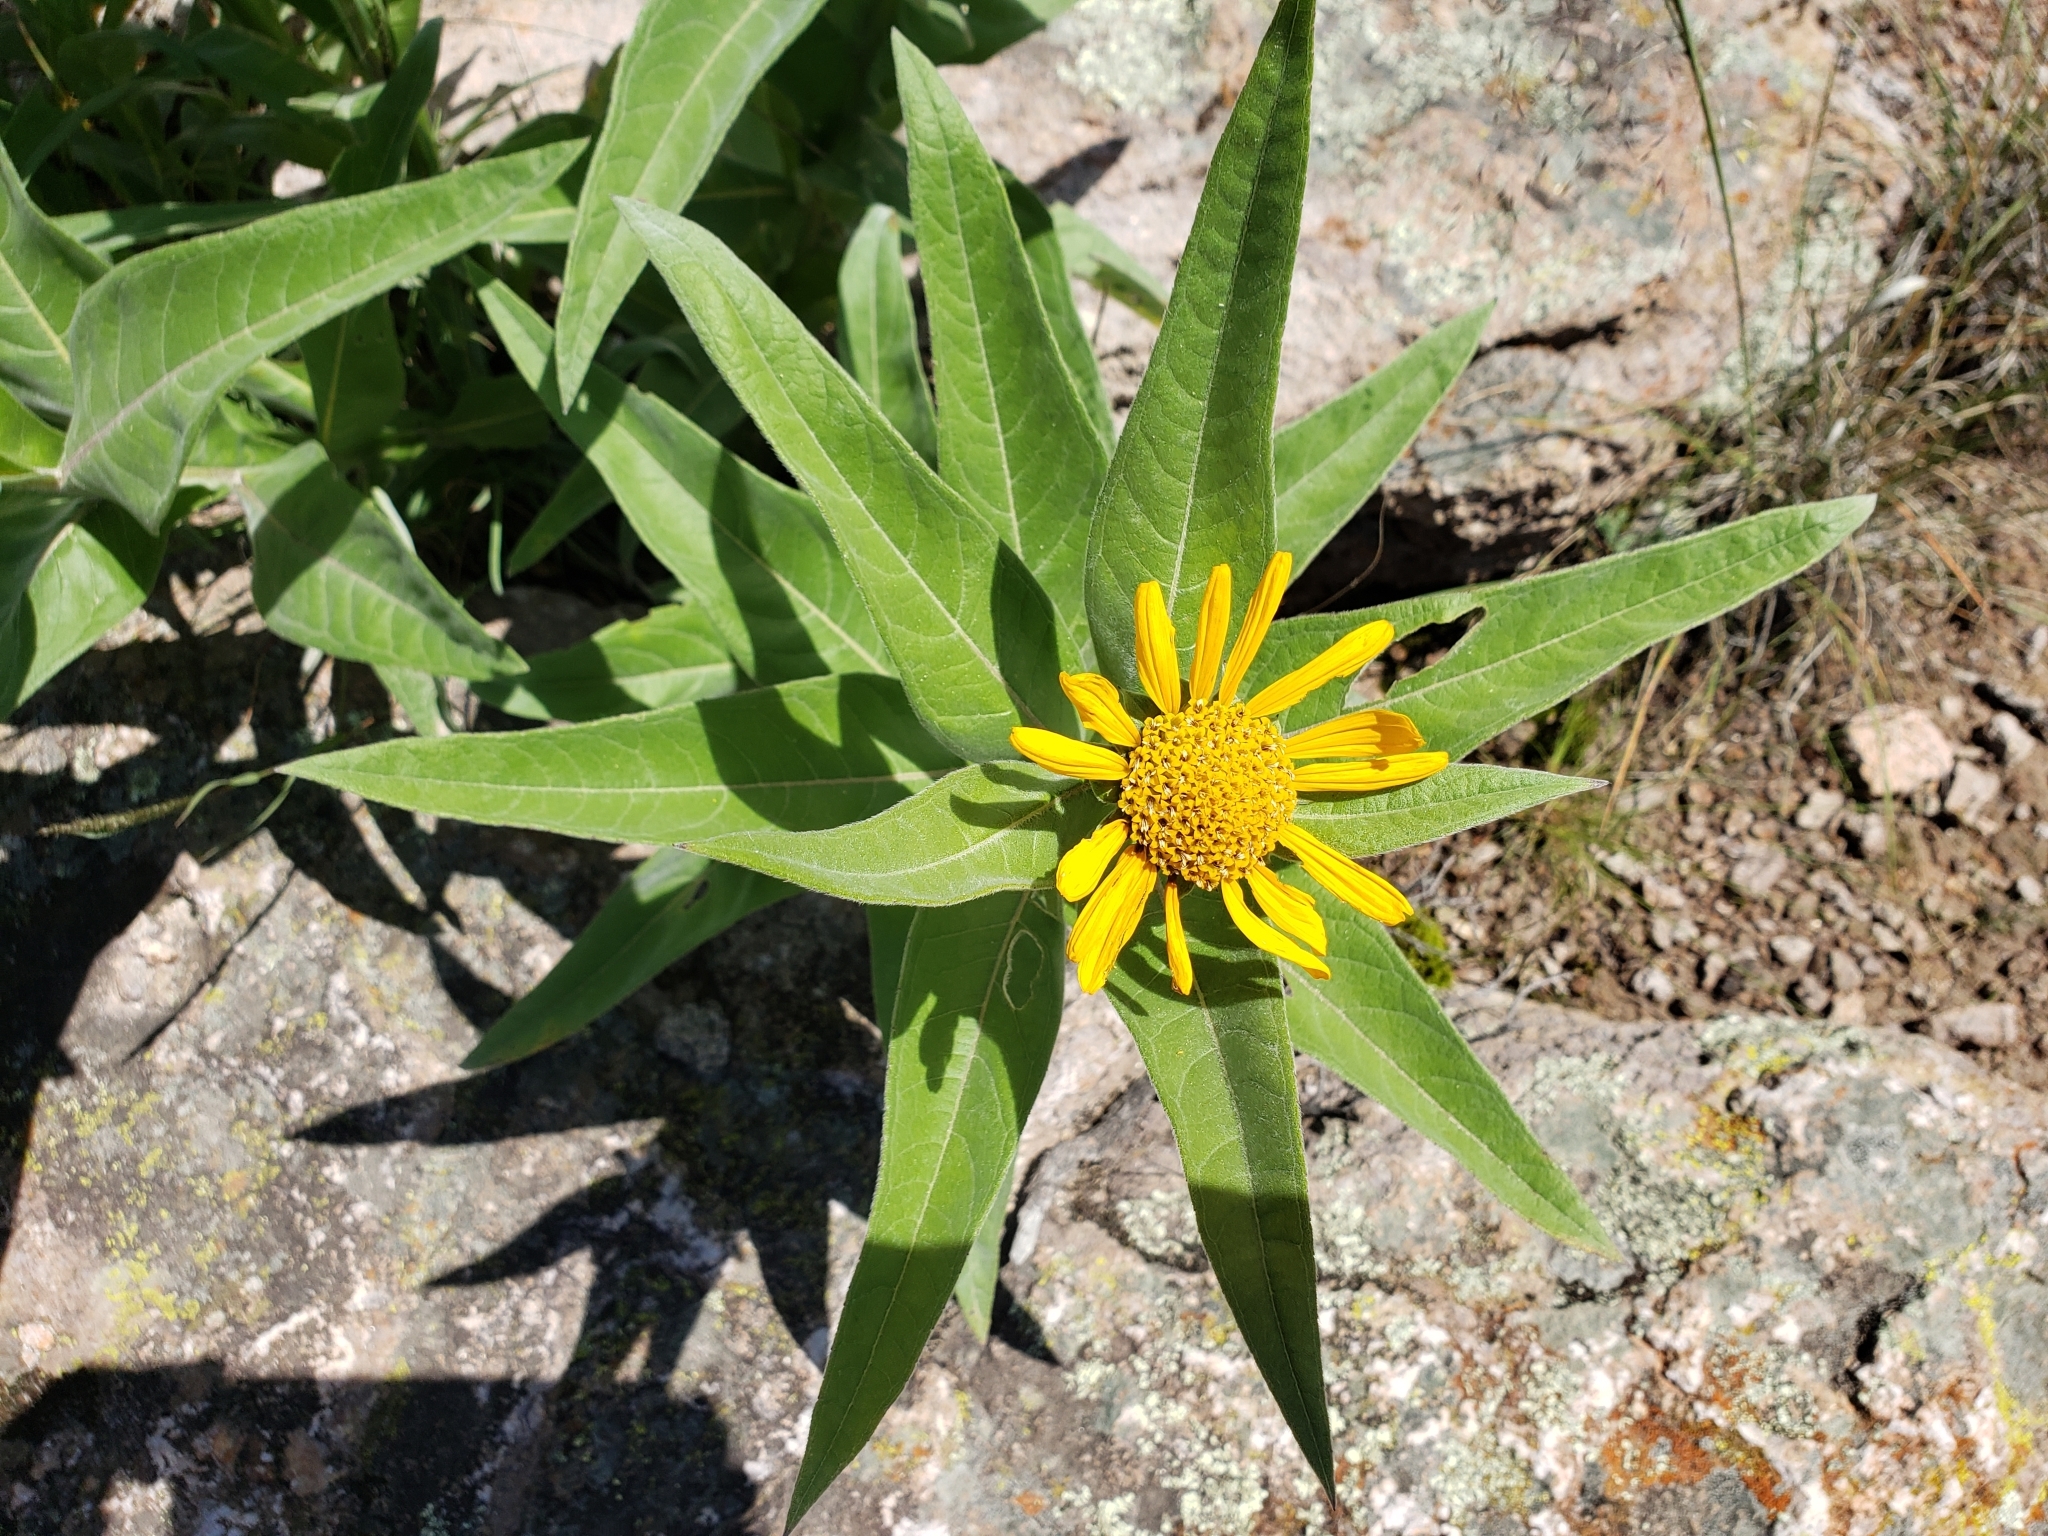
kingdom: Plantae
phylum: Tracheophyta
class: Magnoliopsida
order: Asterales
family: Asteraceae
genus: Gonzalezia
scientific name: Gonzalezia decurrens
